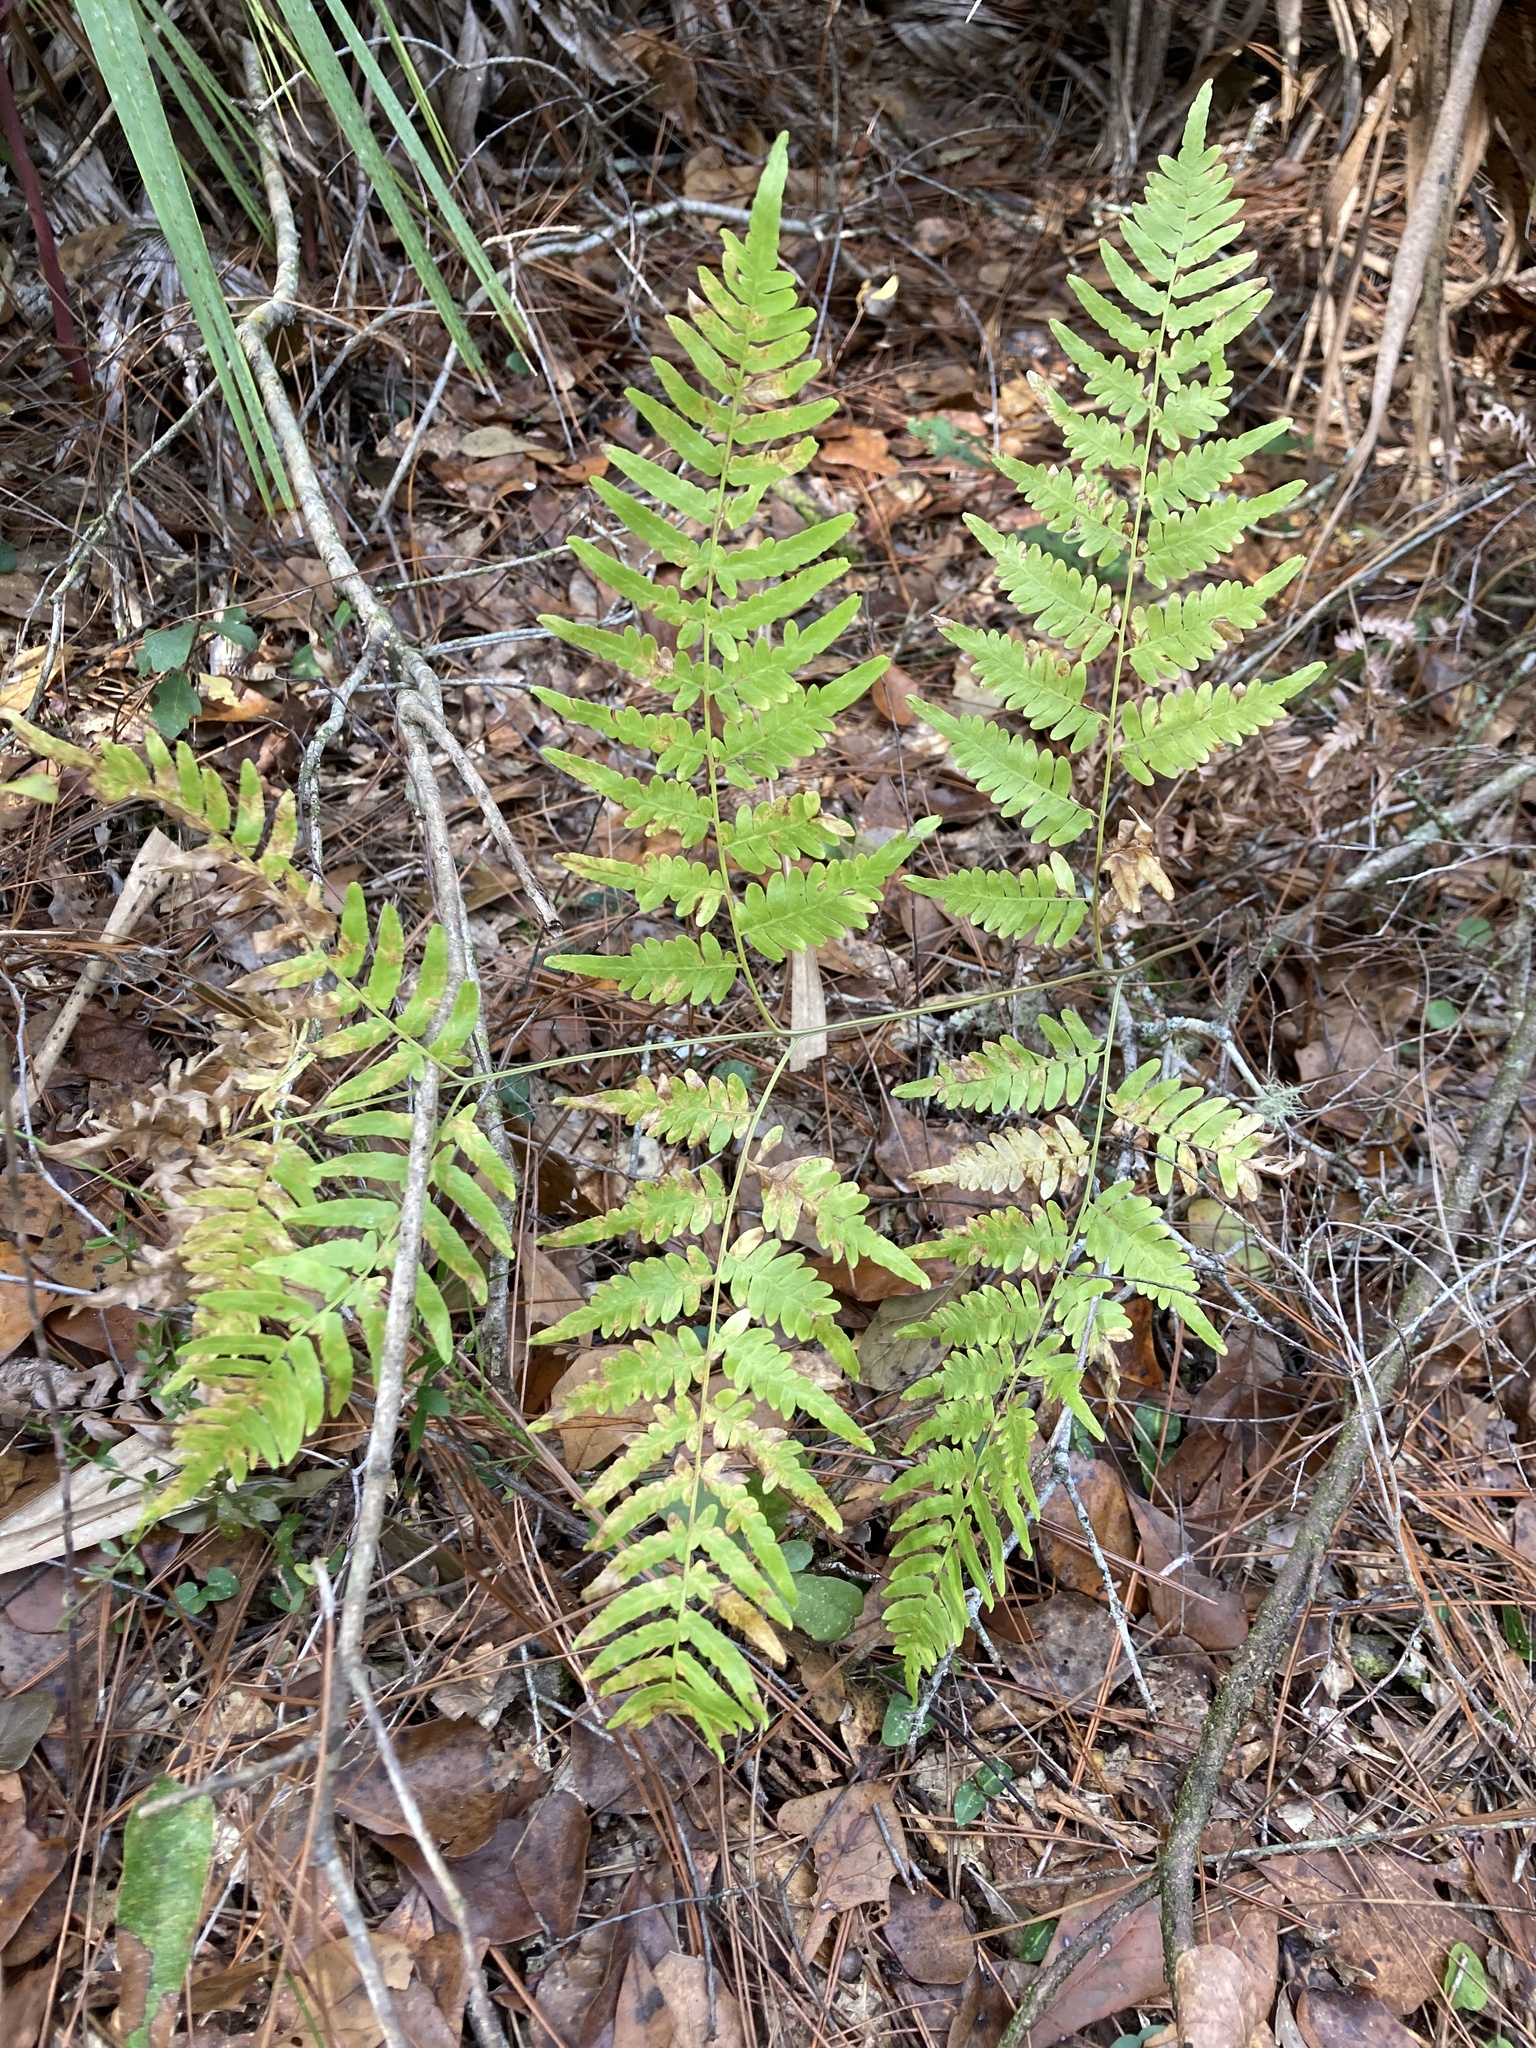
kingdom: Plantae
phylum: Tracheophyta
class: Polypodiopsida
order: Polypodiales
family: Dennstaedtiaceae
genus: Pteridium
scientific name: Pteridium
